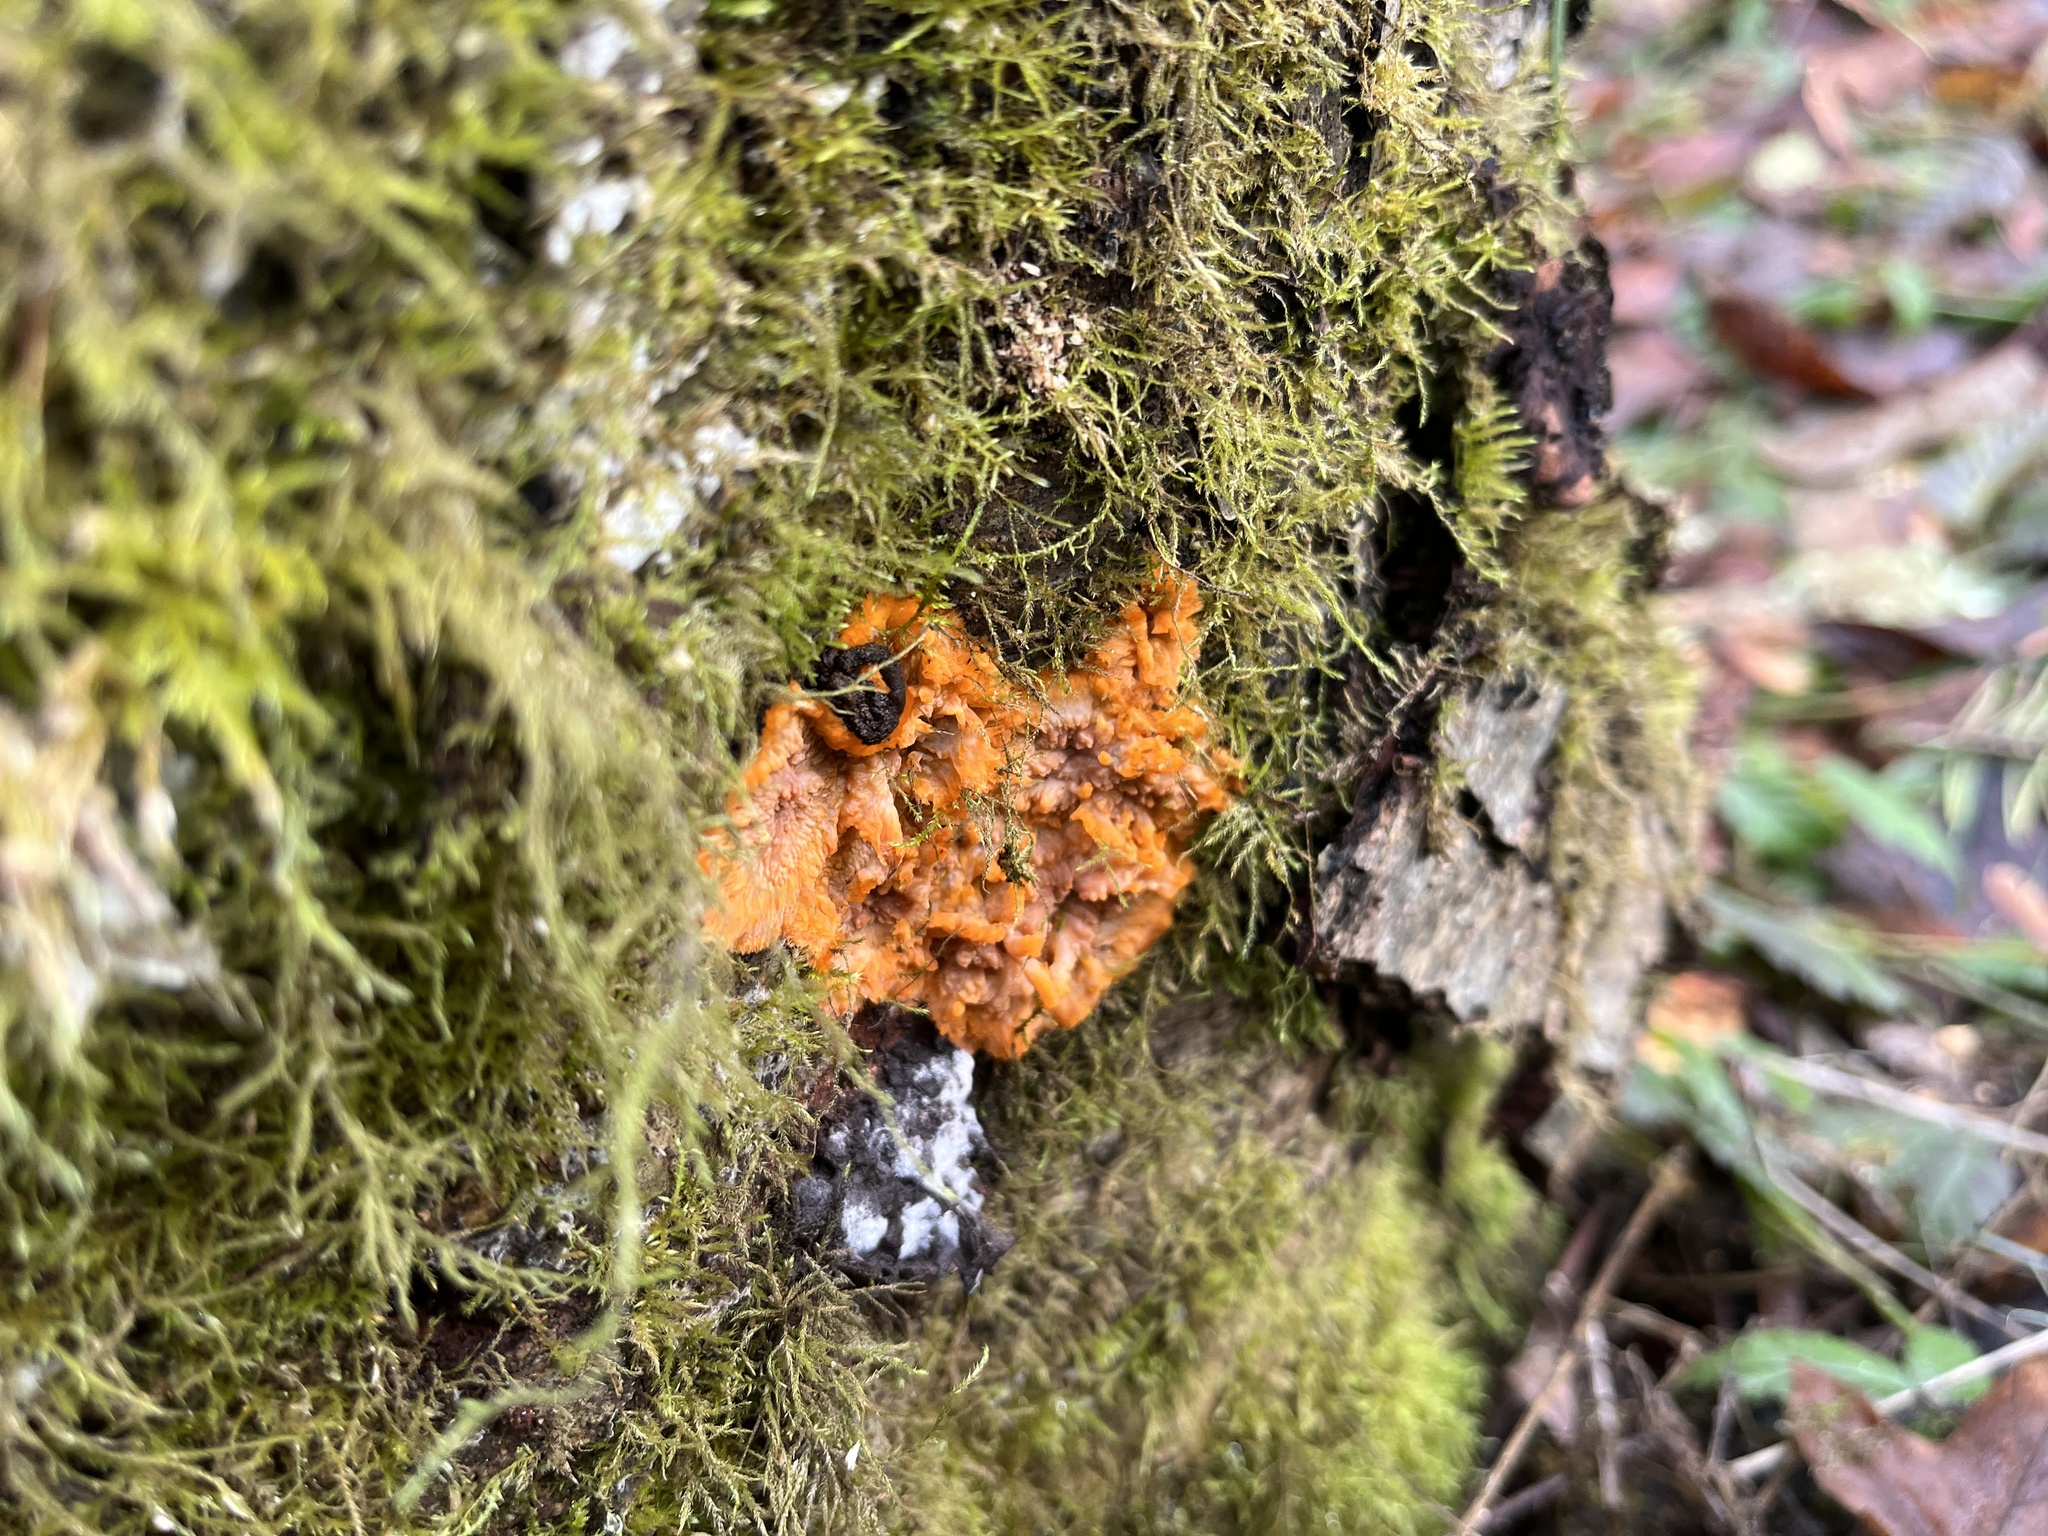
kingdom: Fungi
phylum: Basidiomycota
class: Agaricomycetes
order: Polyporales
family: Meruliaceae
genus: Phlebia
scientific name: Phlebia radiata
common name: Wrinkled crust
